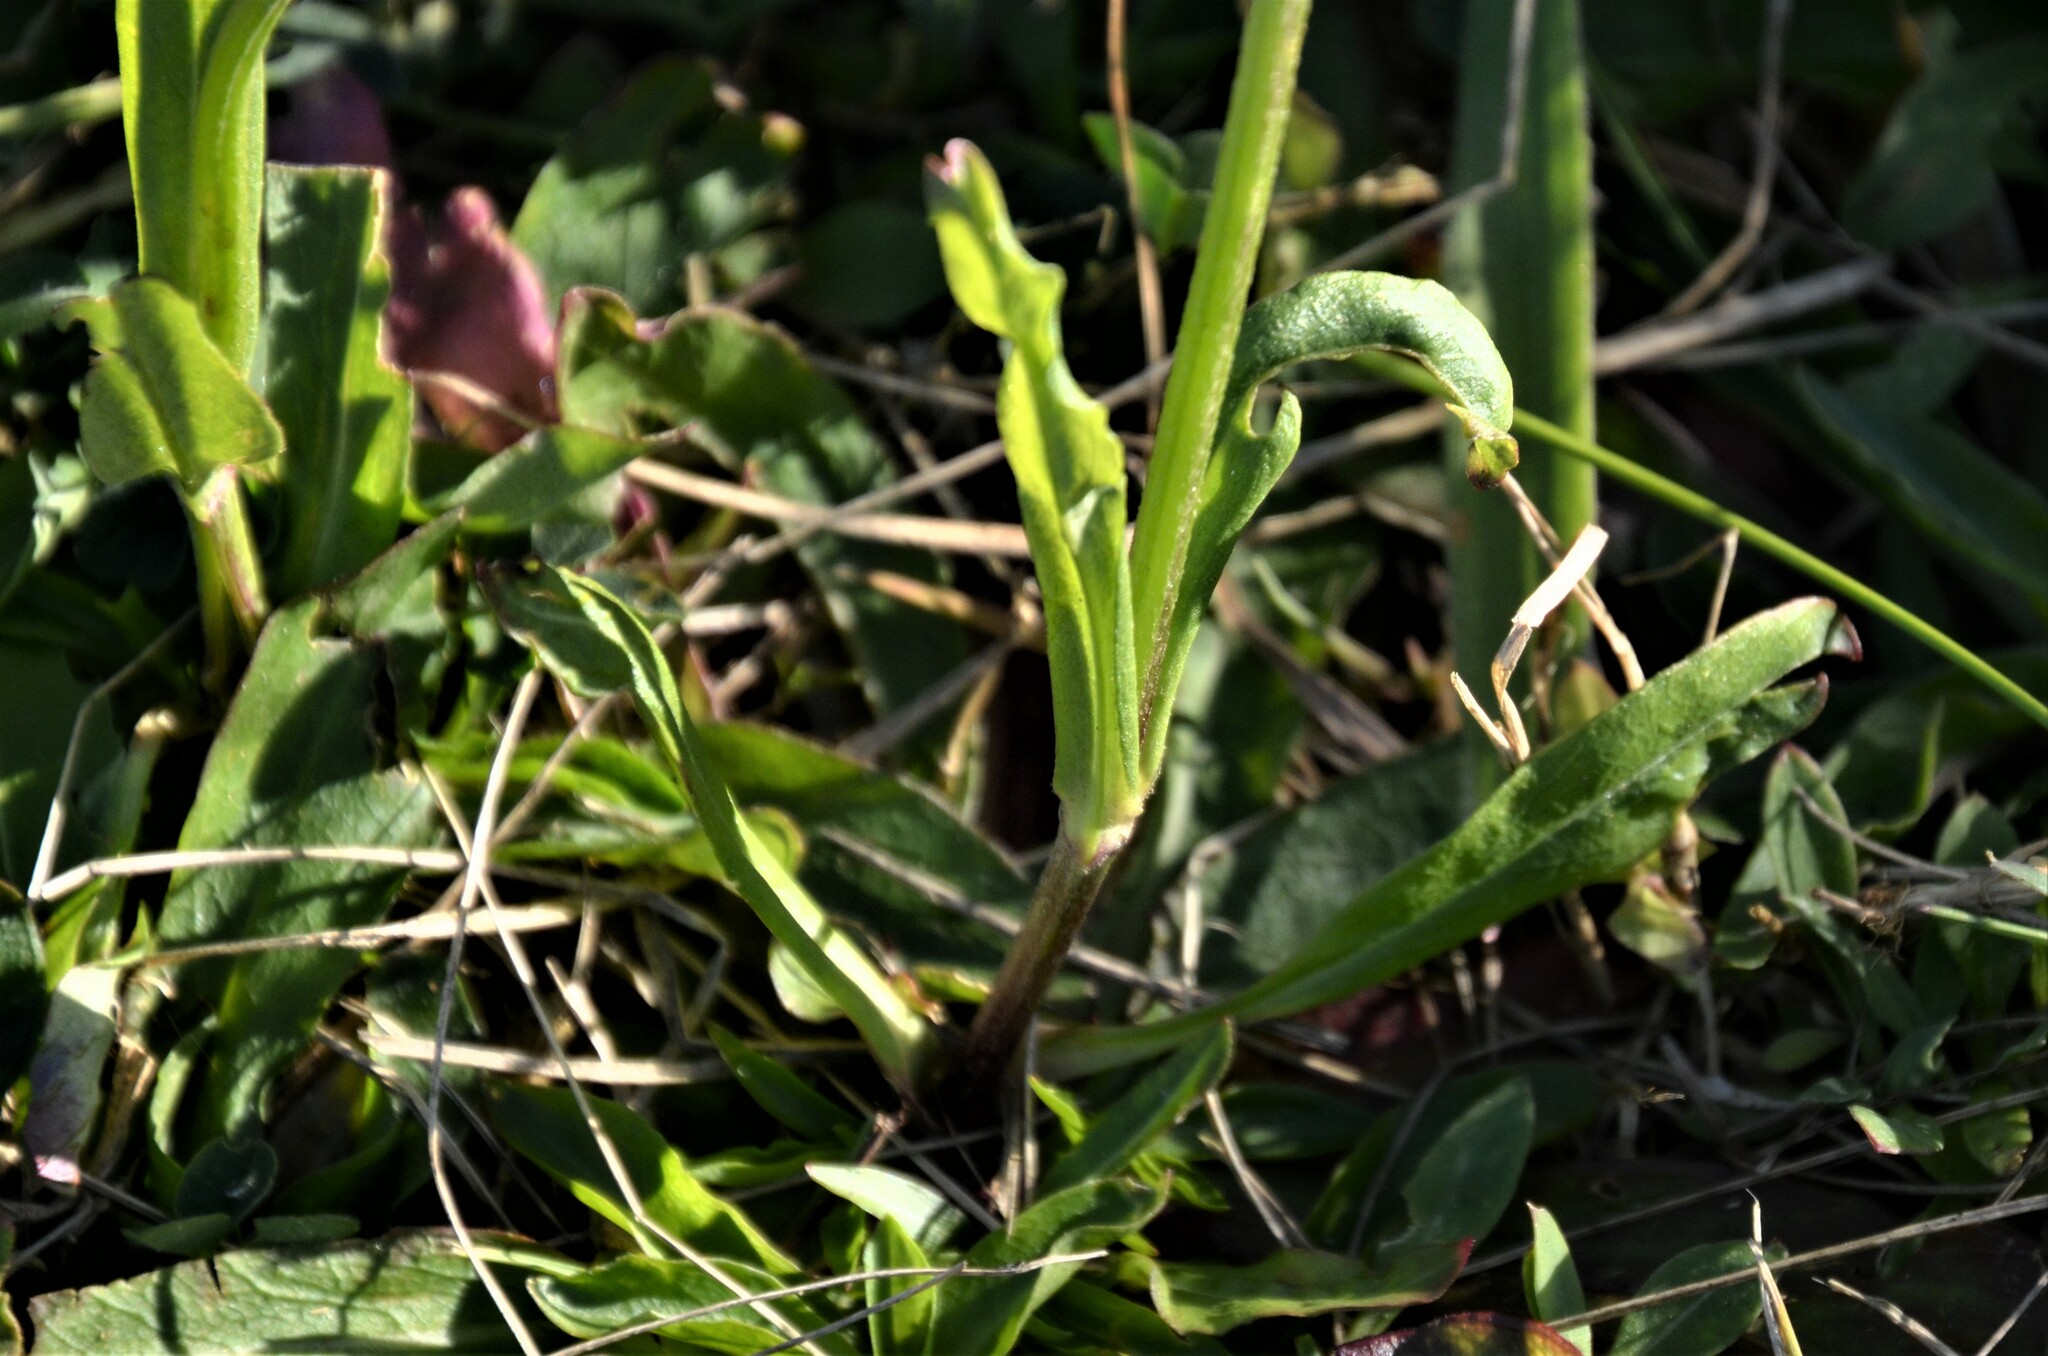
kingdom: Plantae
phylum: Tracheophyta
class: Magnoliopsida
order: Caryophyllales
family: Caryophyllaceae
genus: Silene
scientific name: Silene flos-cuculi
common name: Ragged-robin
